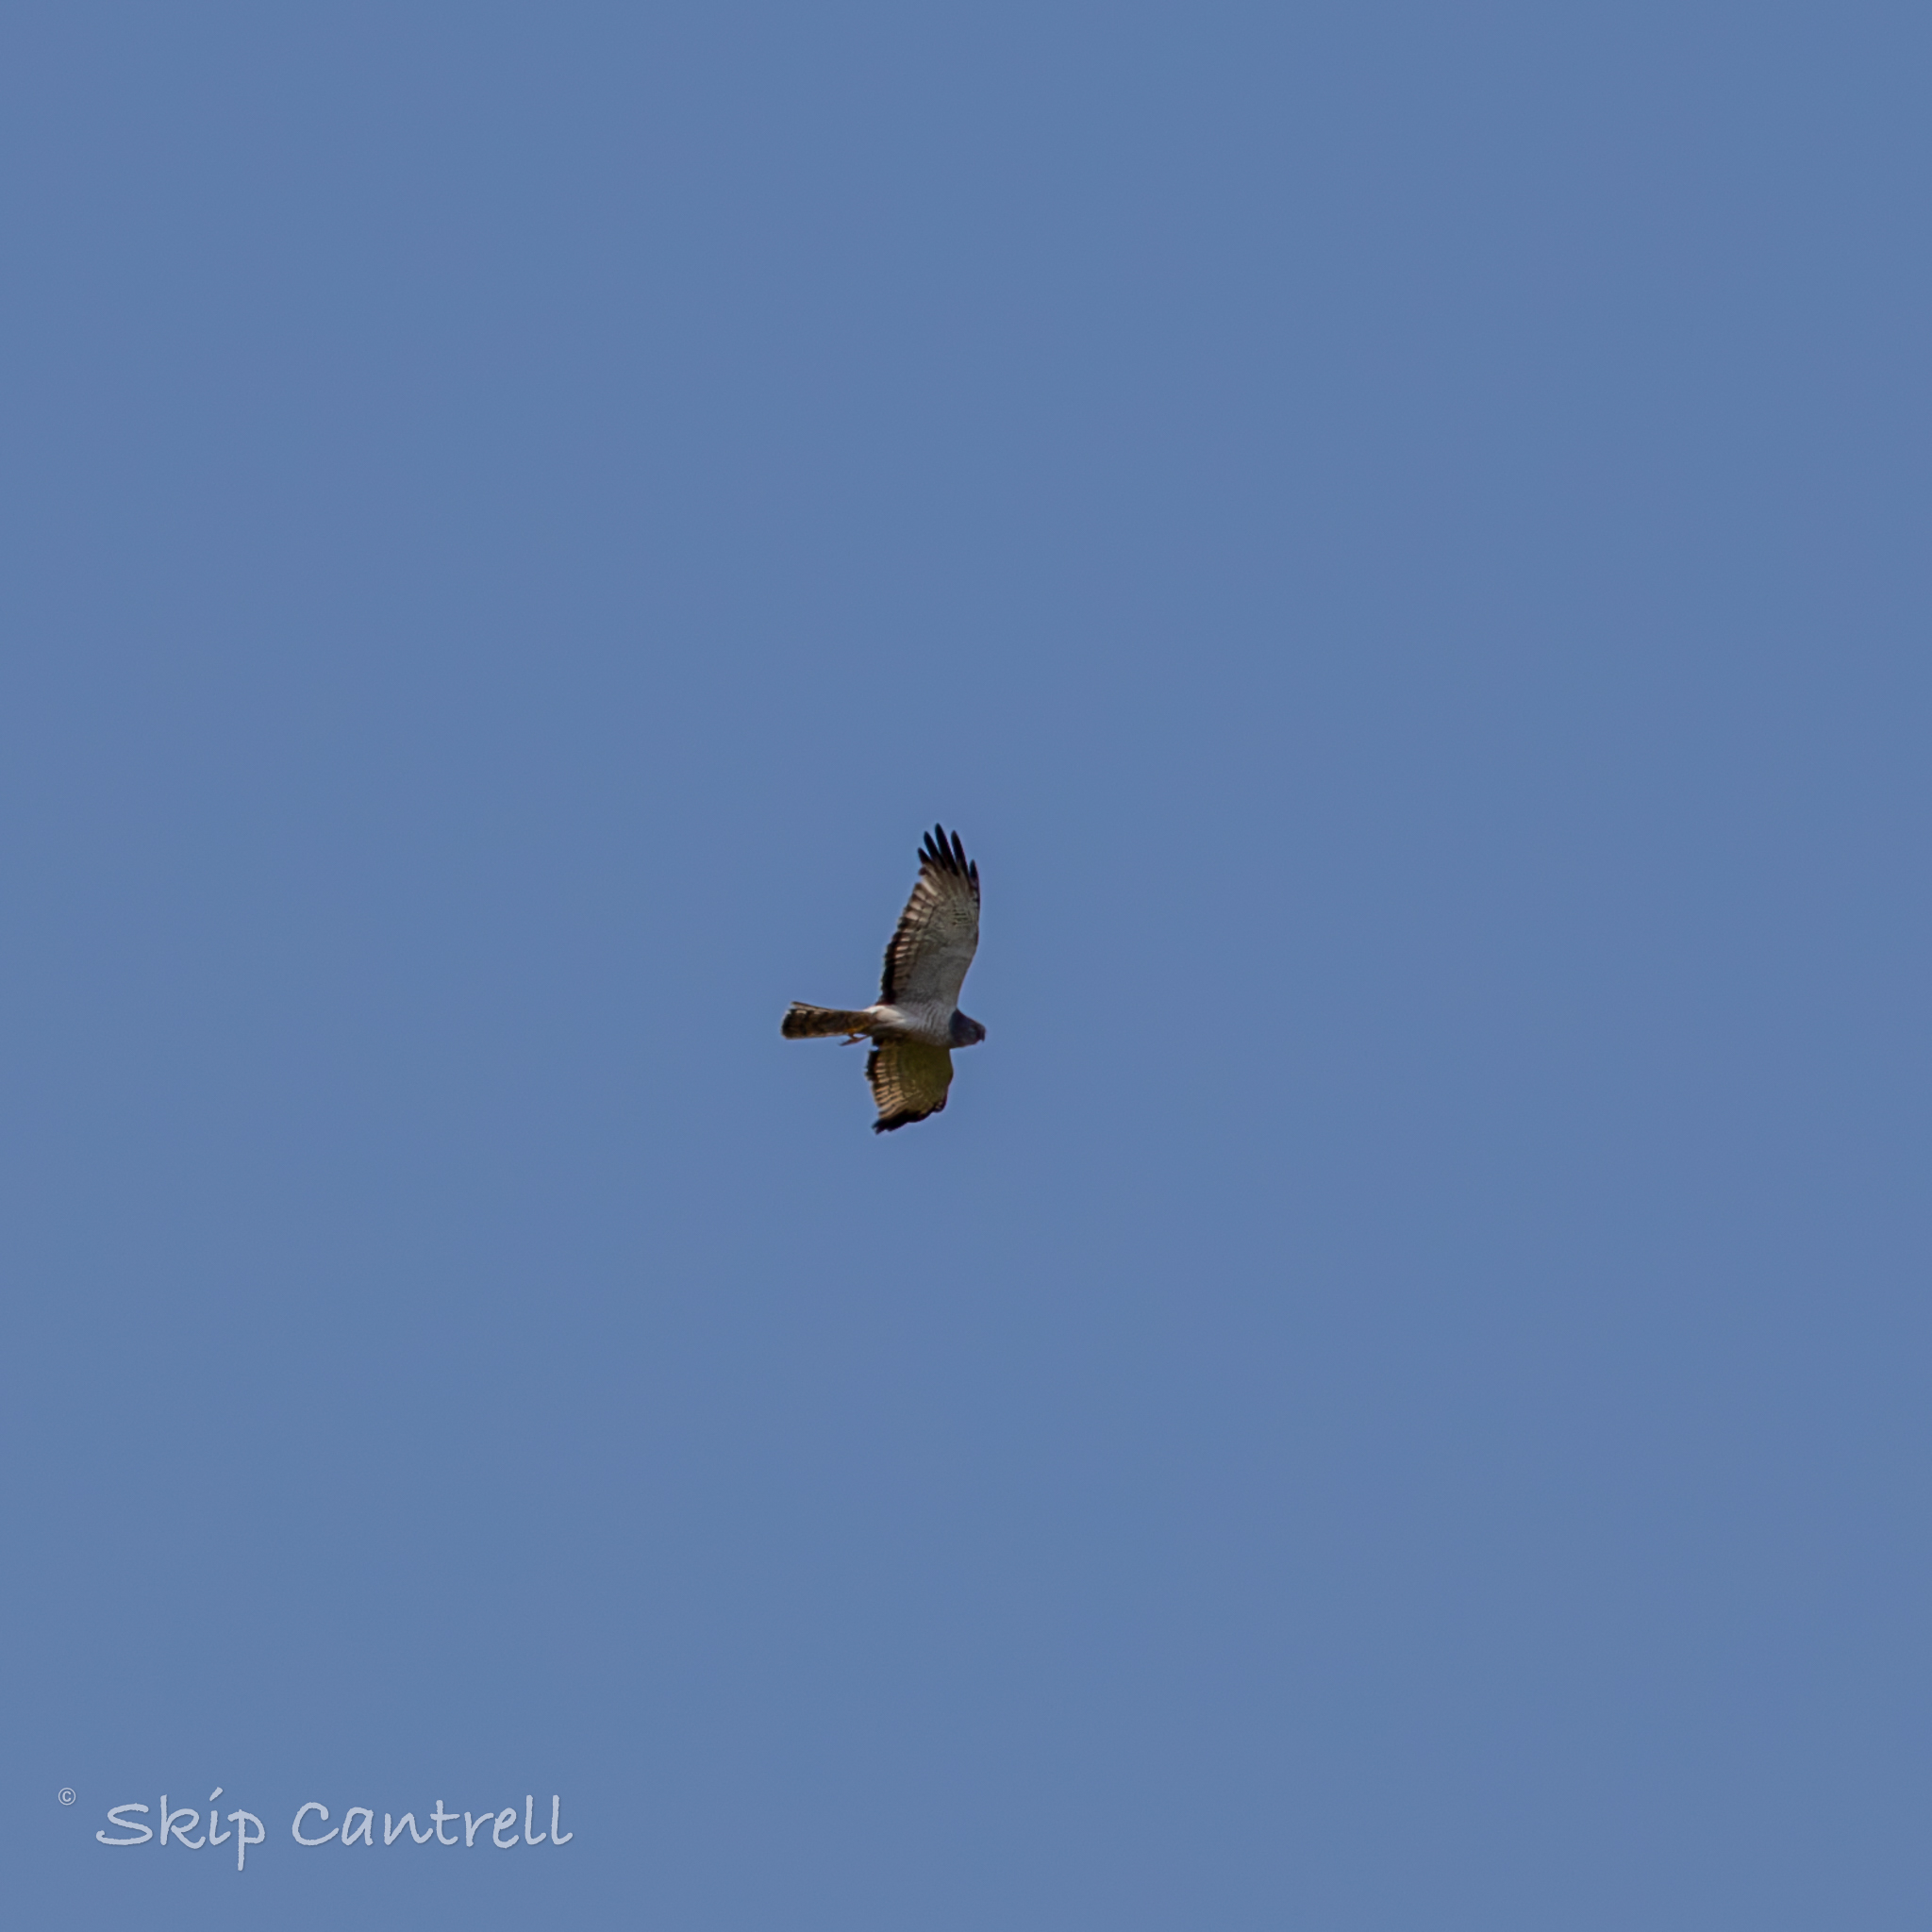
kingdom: Animalia
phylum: Chordata
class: Aves
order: Accipitriformes
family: Accipitridae
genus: Circus
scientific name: Circus cyaneus
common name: Hen harrier
